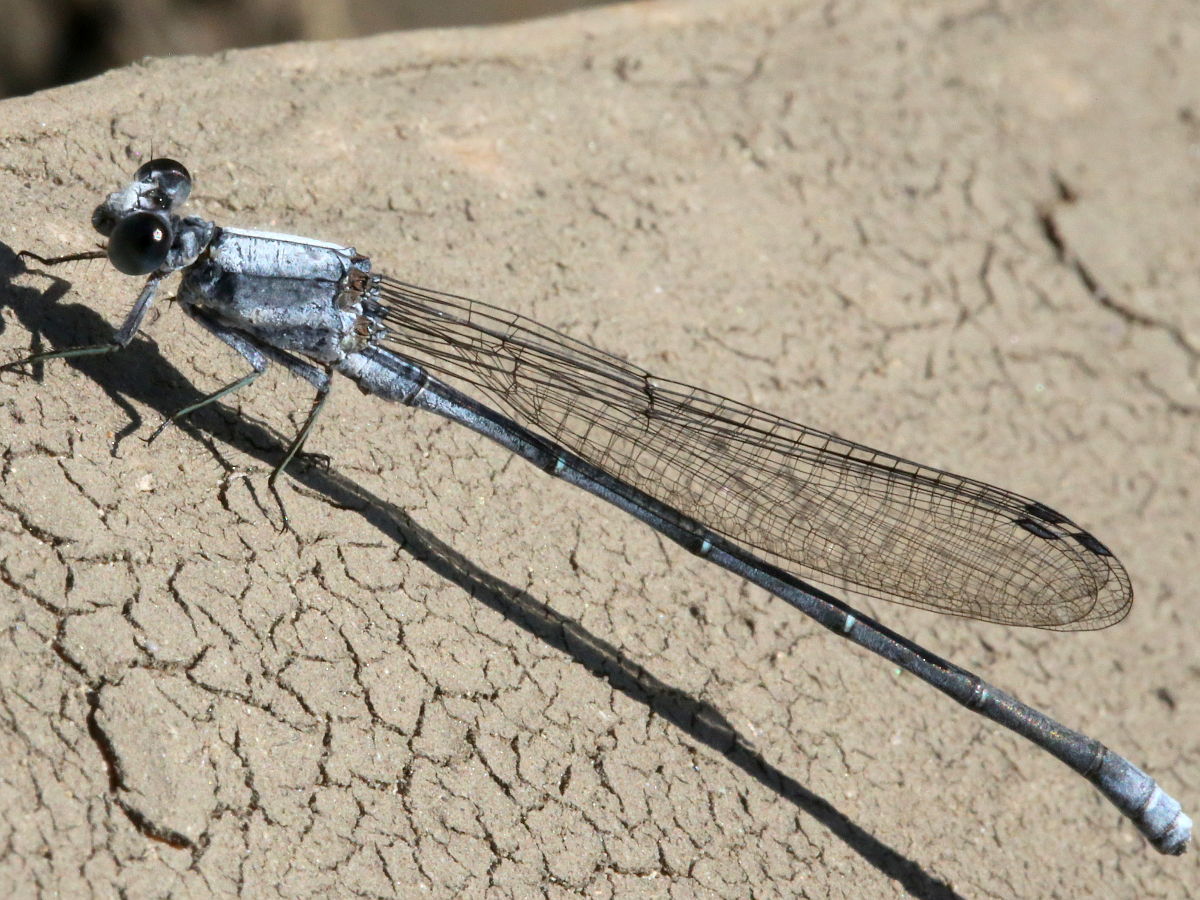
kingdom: Animalia
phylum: Arthropoda
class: Insecta
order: Odonata
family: Coenagrionidae
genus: Argia
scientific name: Argia moesta
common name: Powdered dancer
